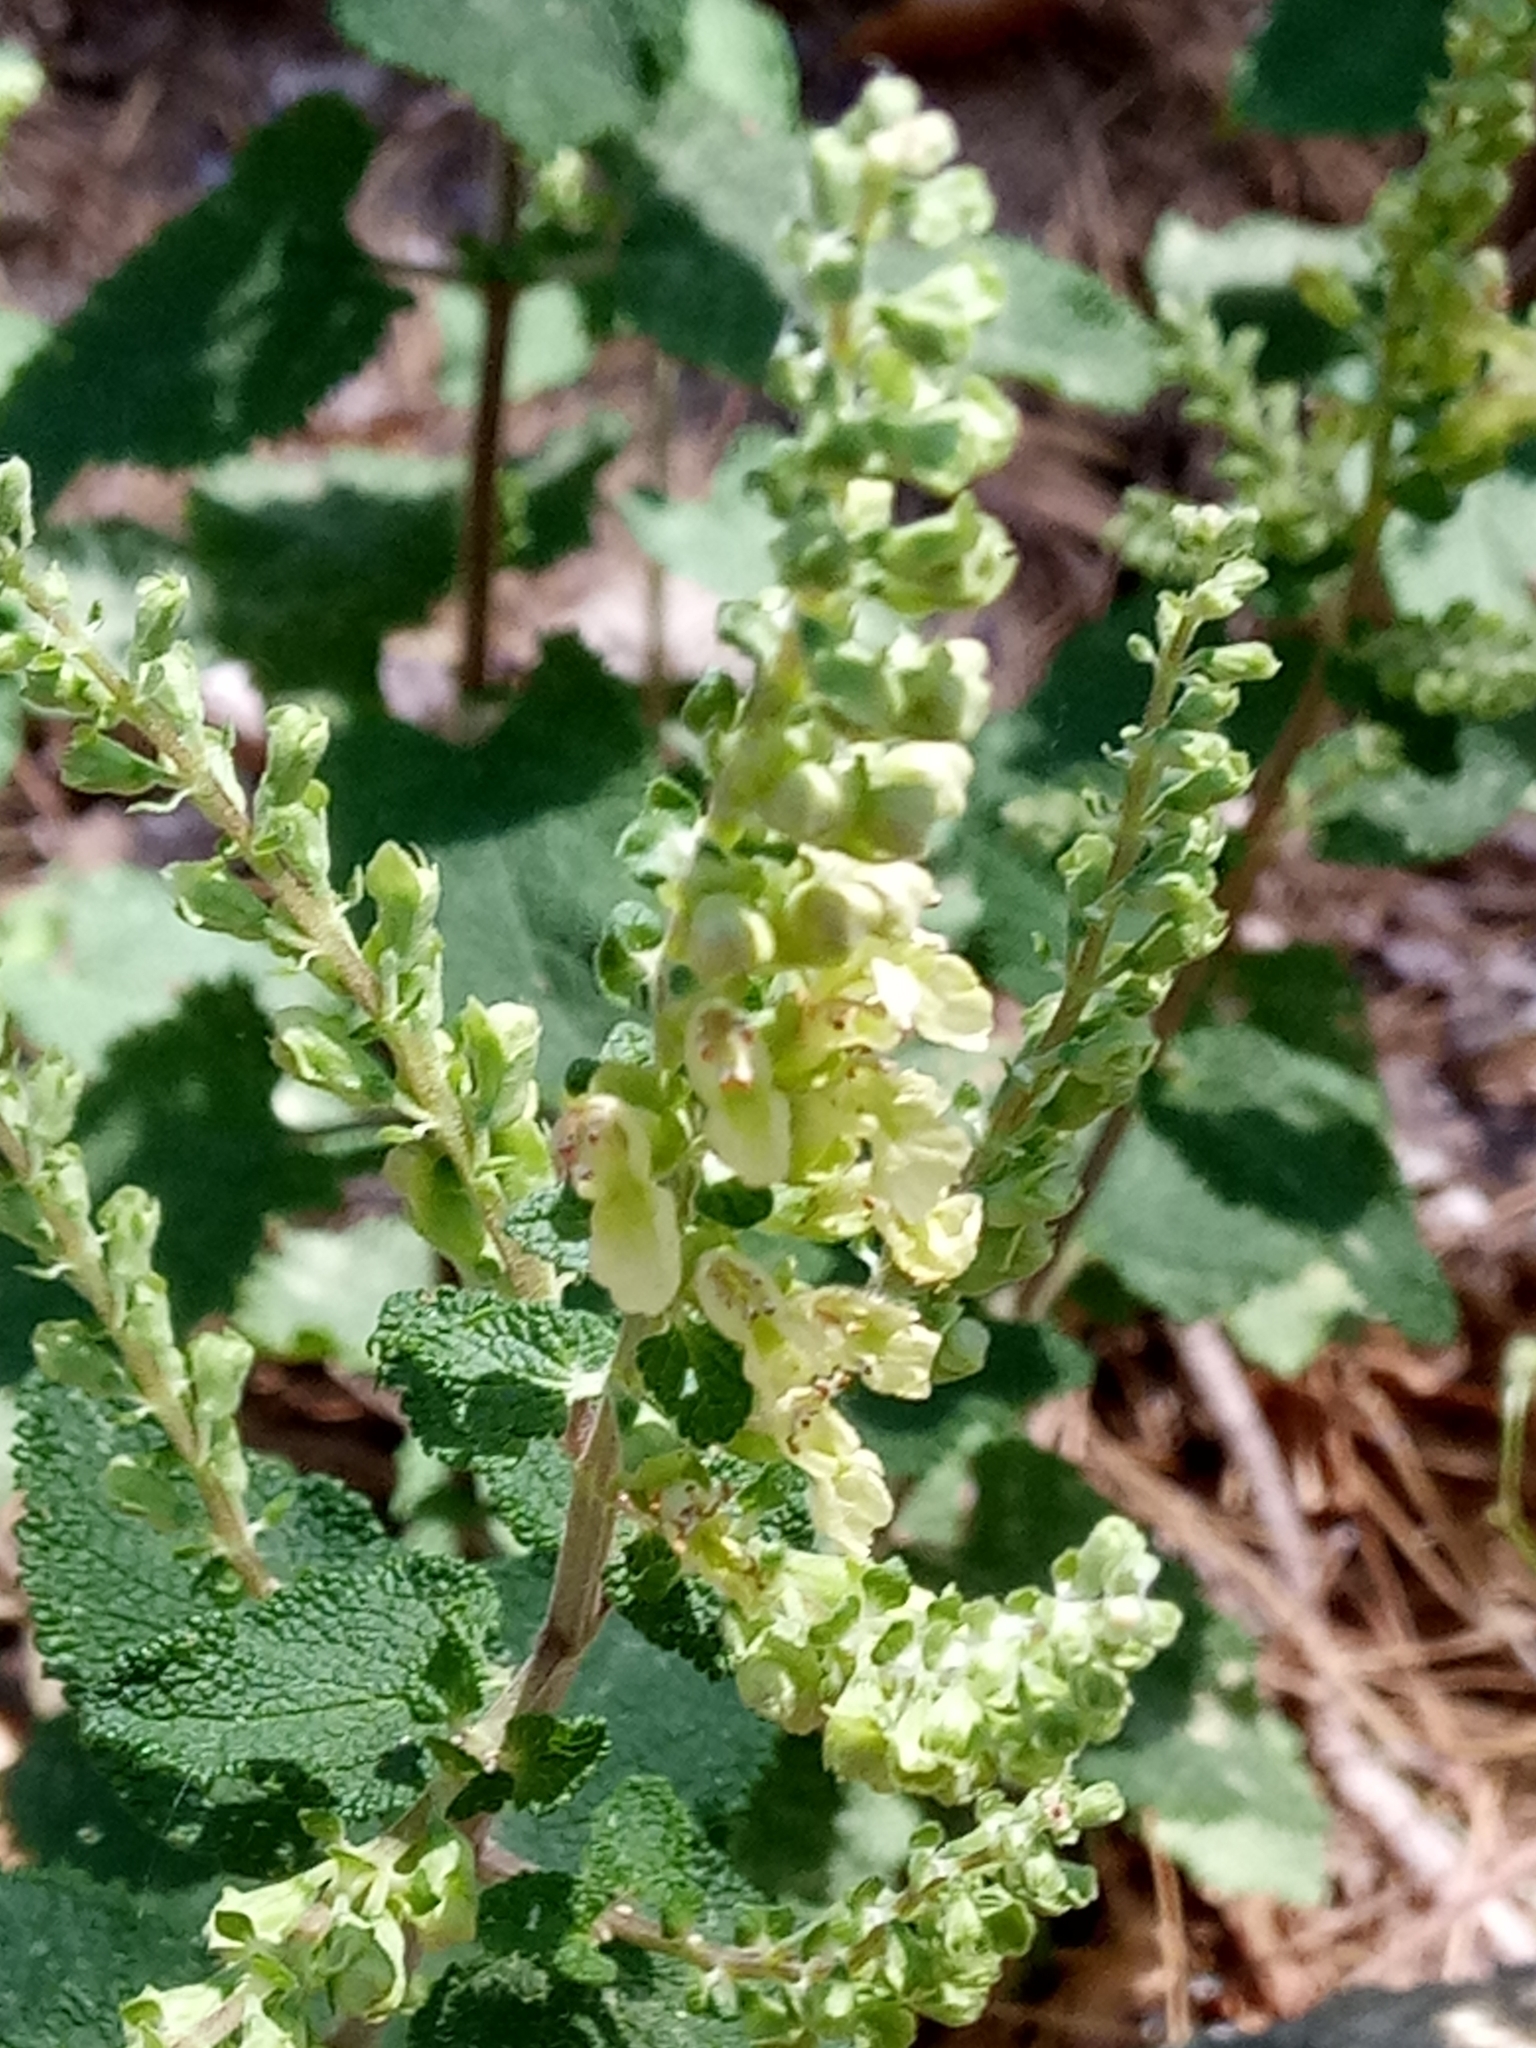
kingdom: Plantae
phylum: Tracheophyta
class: Magnoliopsida
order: Lamiales
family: Lamiaceae
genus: Teucrium
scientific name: Teucrium scorodonia
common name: Woodland germander
